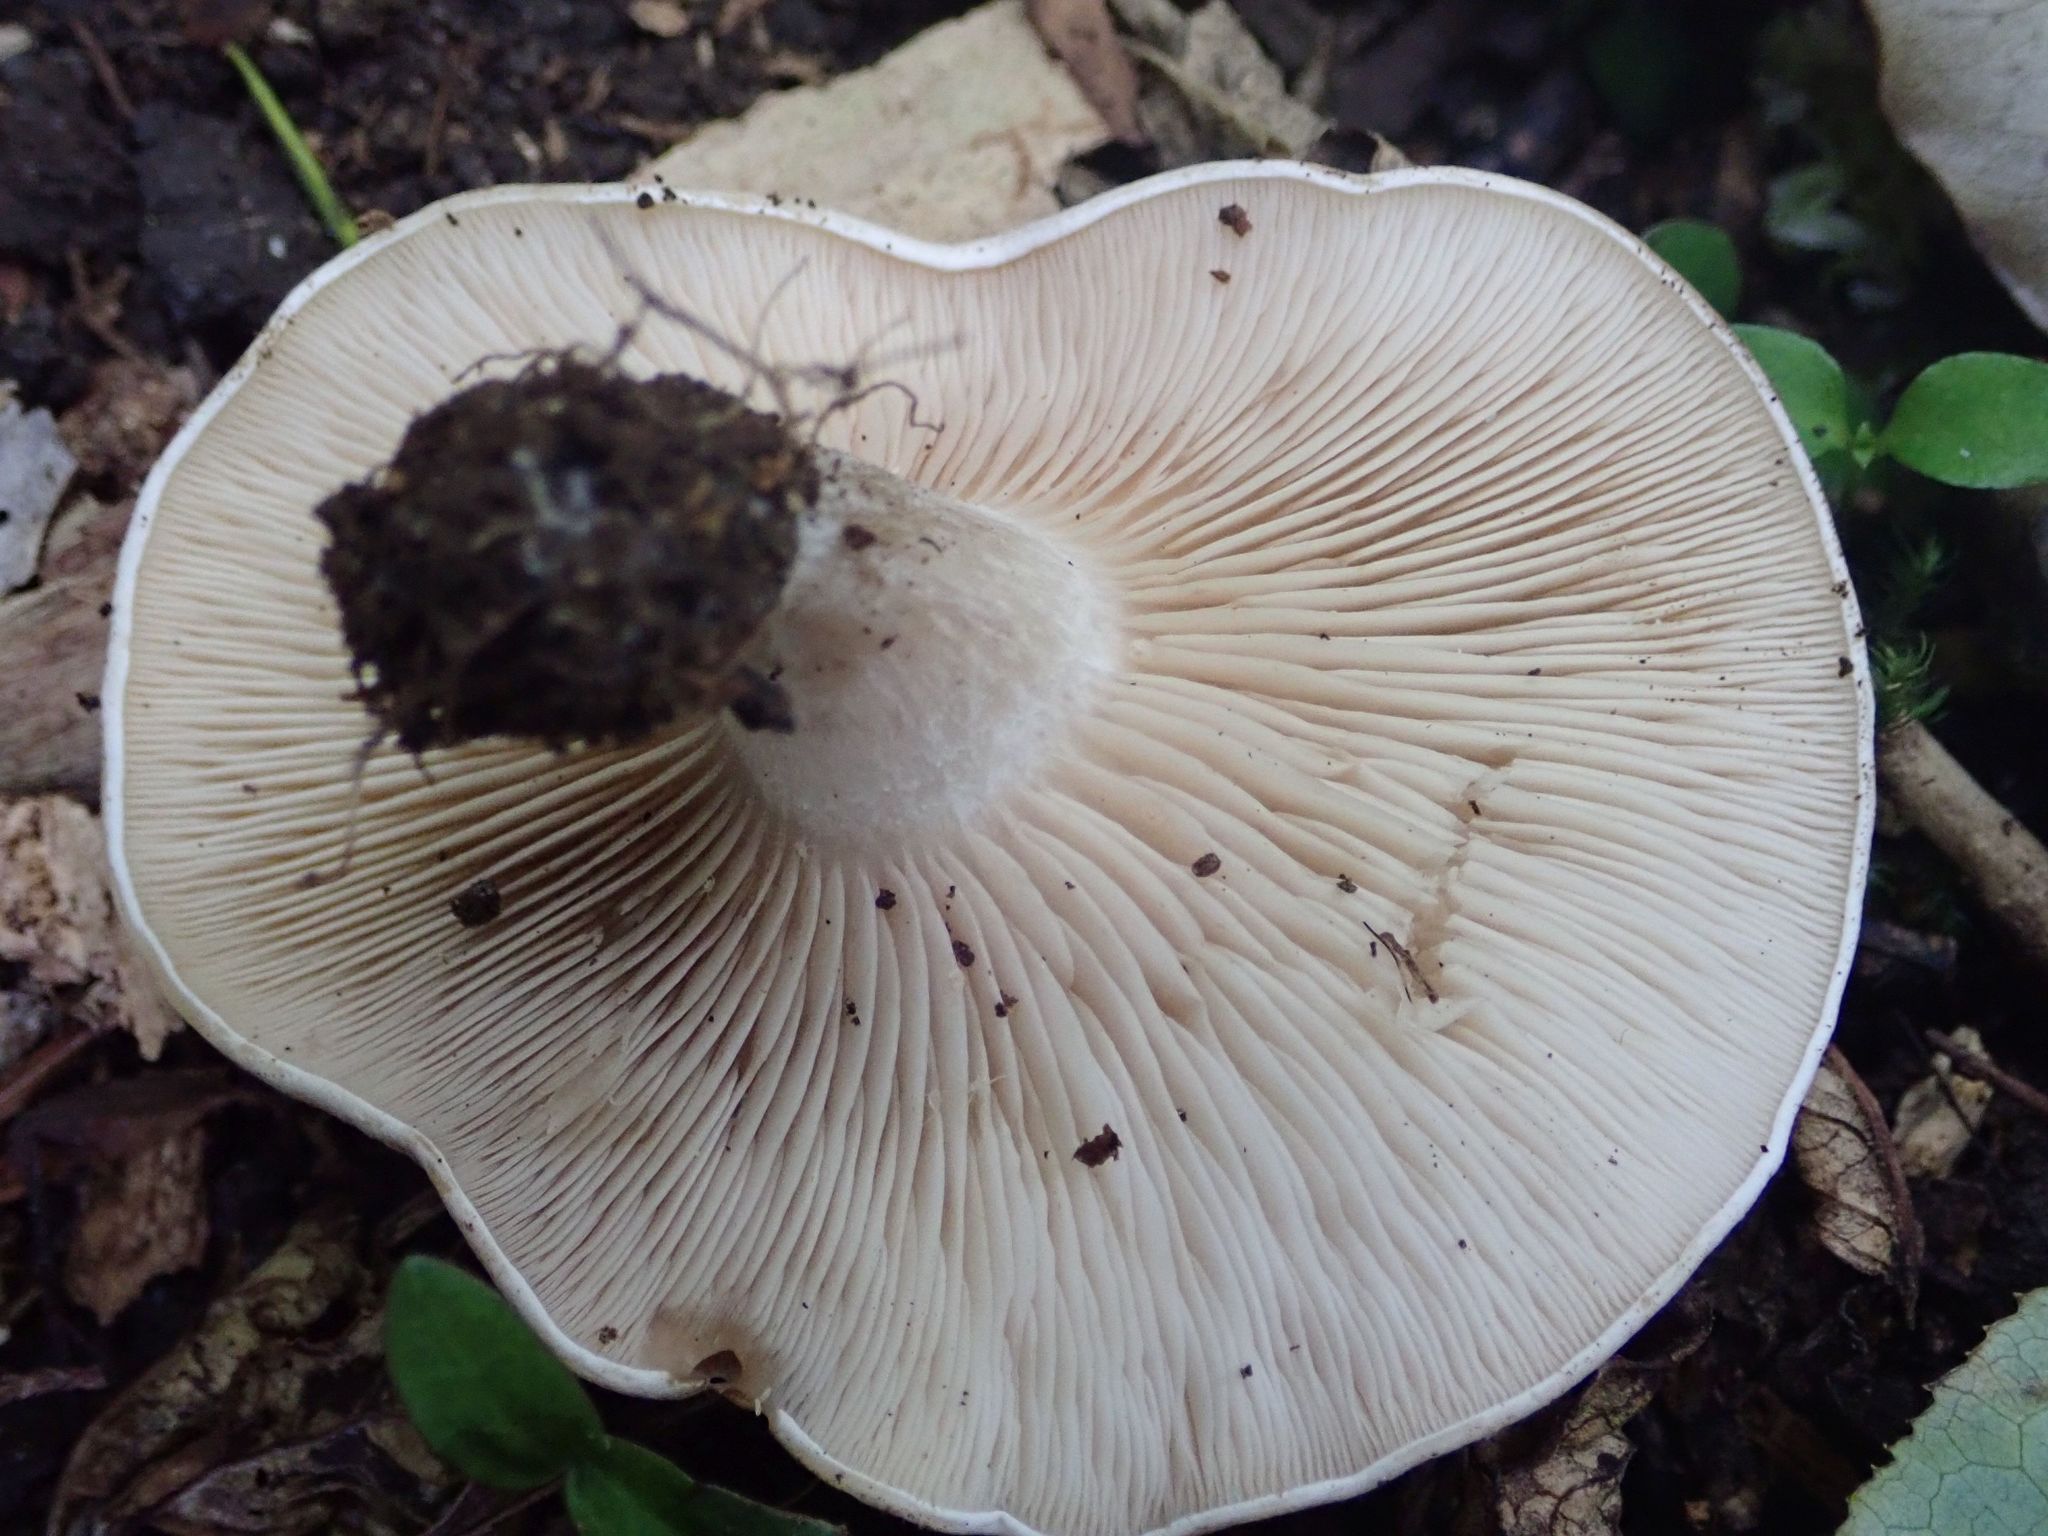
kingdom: Fungi
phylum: Basidiomycota
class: Agaricomycetes
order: Agaricales
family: Tricholomataceae
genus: Clitocybe
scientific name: Clitocybe nebularis
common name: Clouded agaric
